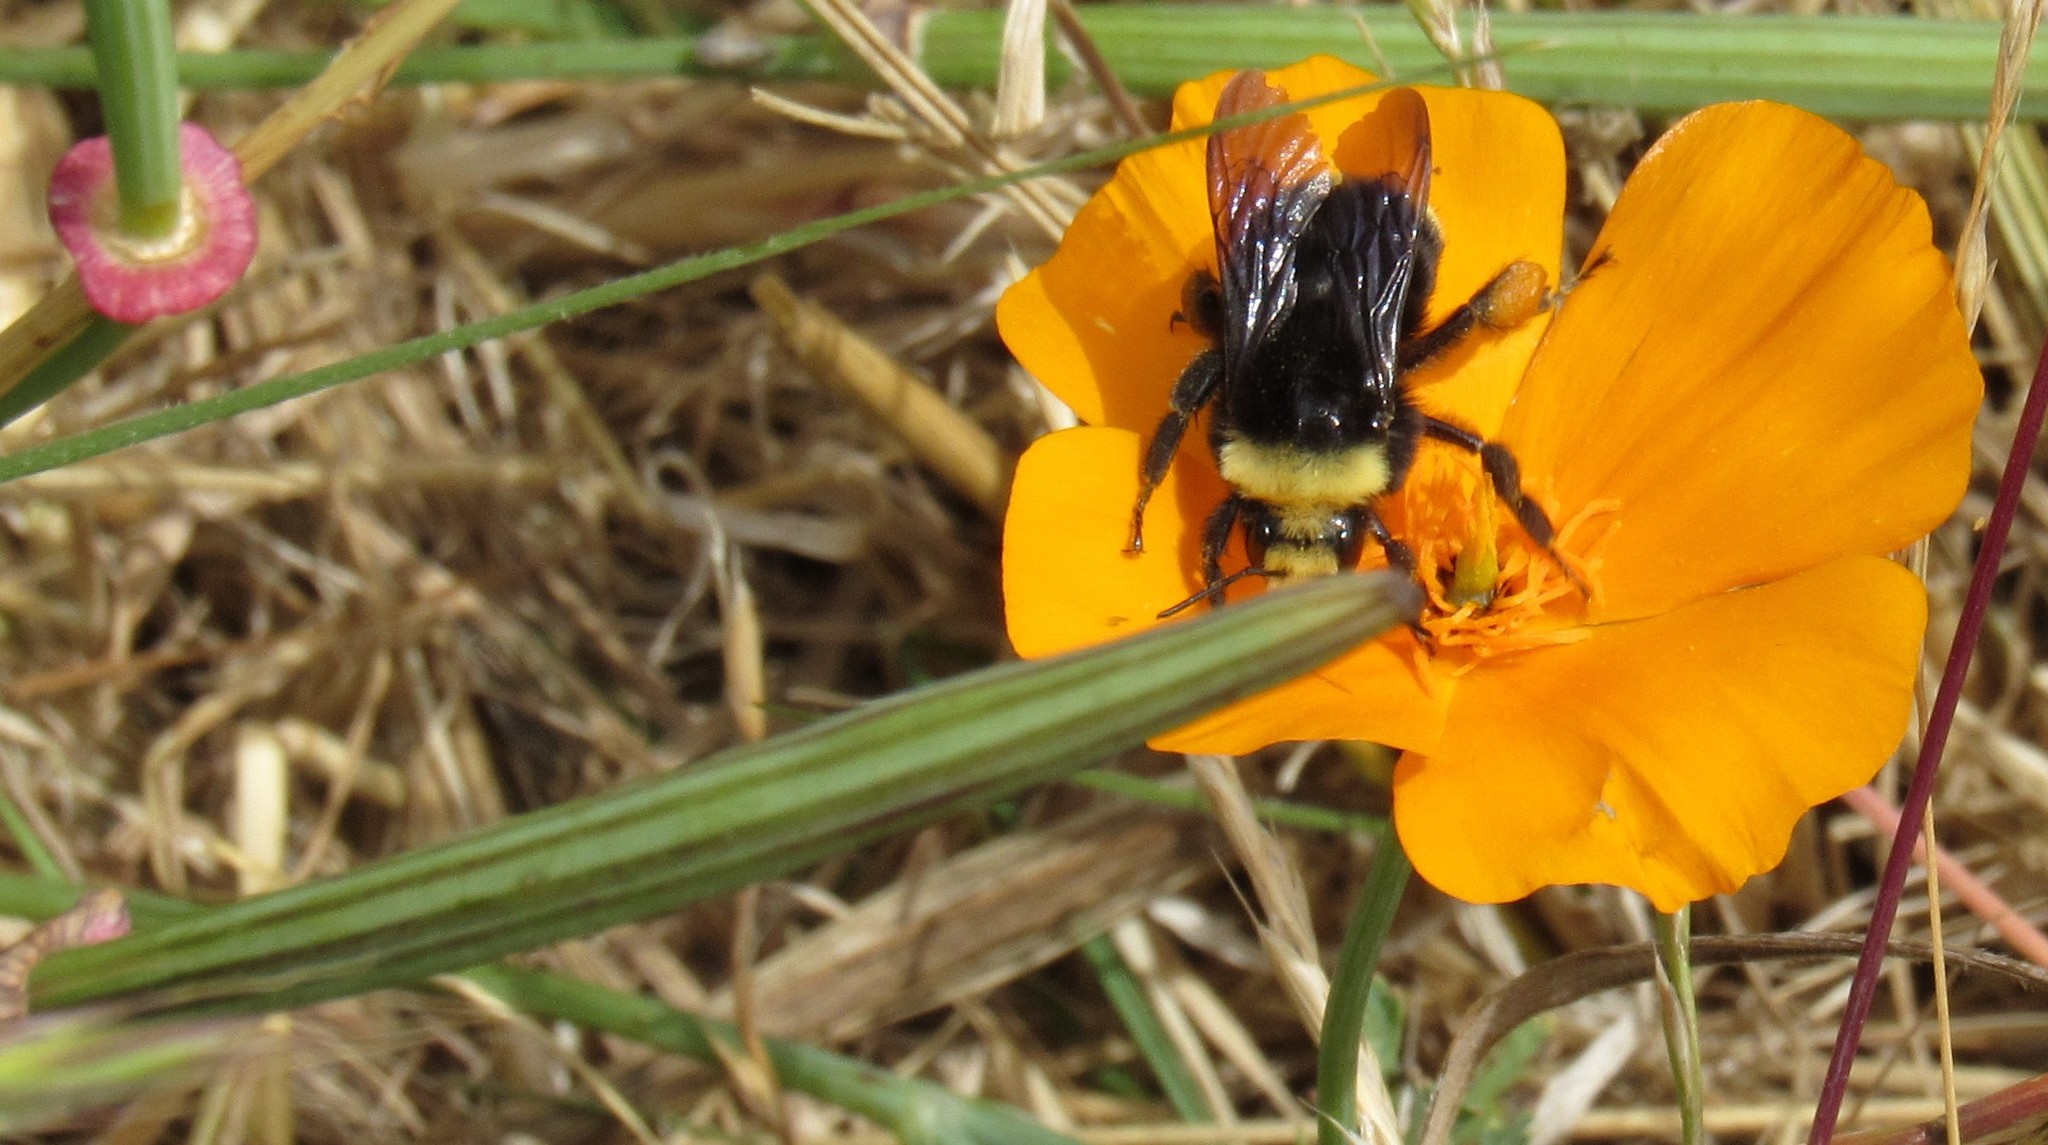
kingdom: Animalia
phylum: Arthropoda
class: Insecta
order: Hymenoptera
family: Apidae
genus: Bombus
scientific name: Bombus vosnesenskii
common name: Vosnesensky bumble bee
